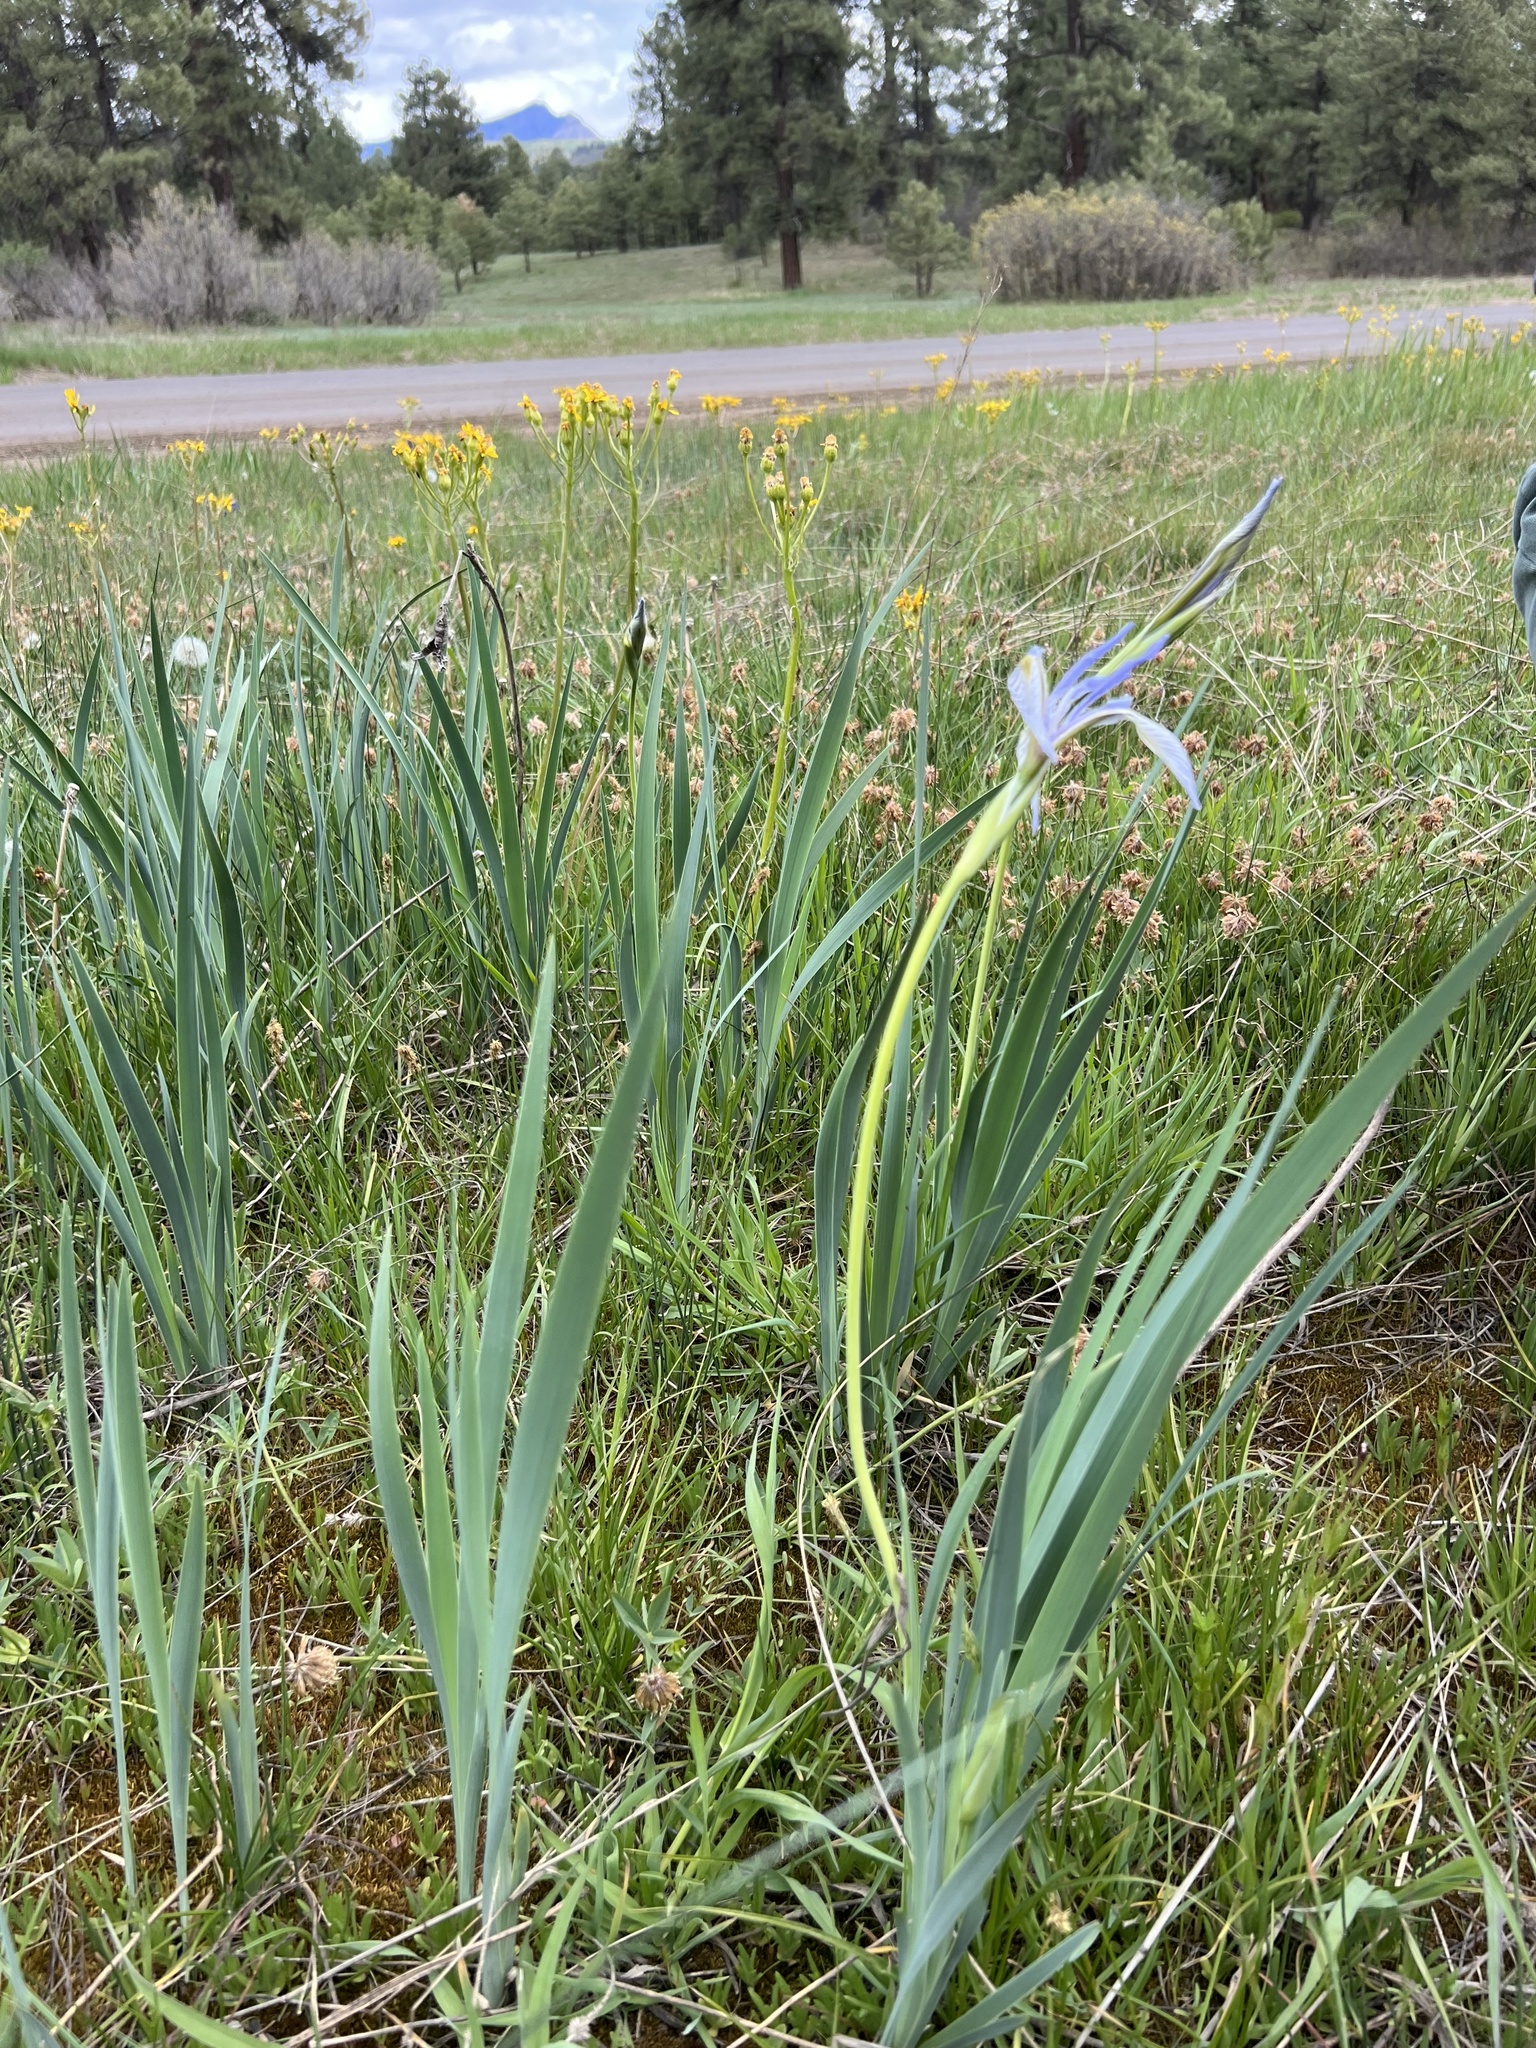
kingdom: Plantae
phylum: Tracheophyta
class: Liliopsida
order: Asparagales
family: Iridaceae
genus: Iris
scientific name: Iris missouriensis
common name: Rocky mountain iris
